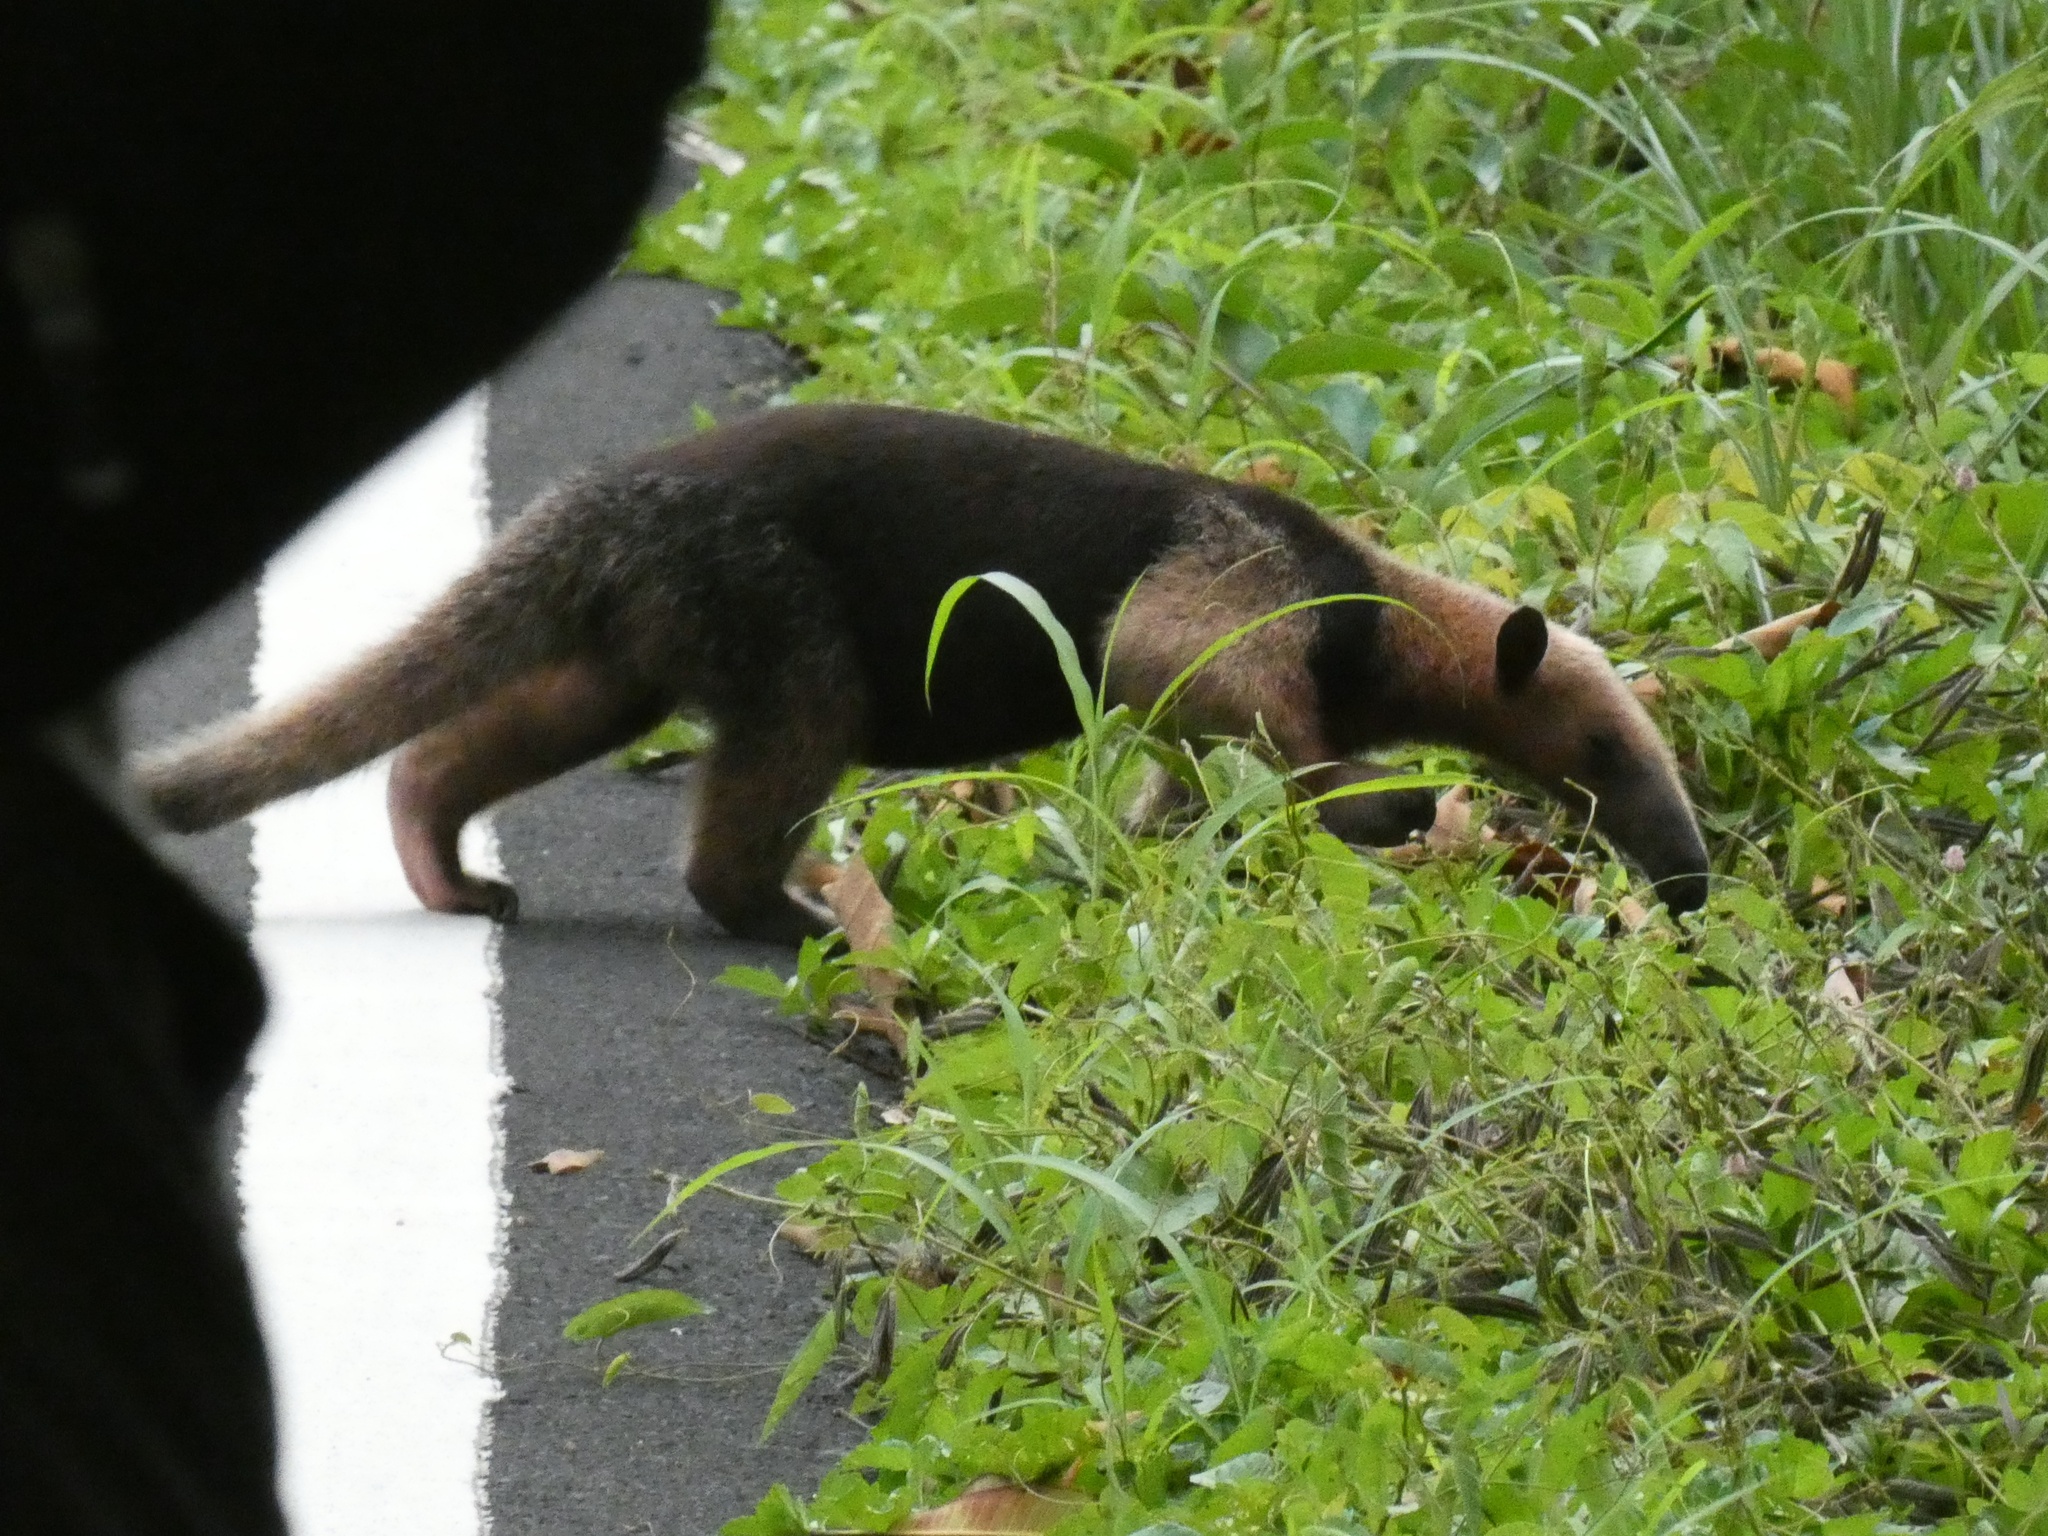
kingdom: Animalia
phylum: Chordata
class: Mammalia
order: Pilosa
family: Myrmecophagidae
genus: Tamandua
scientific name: Tamandua mexicana
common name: Northern tamandua
